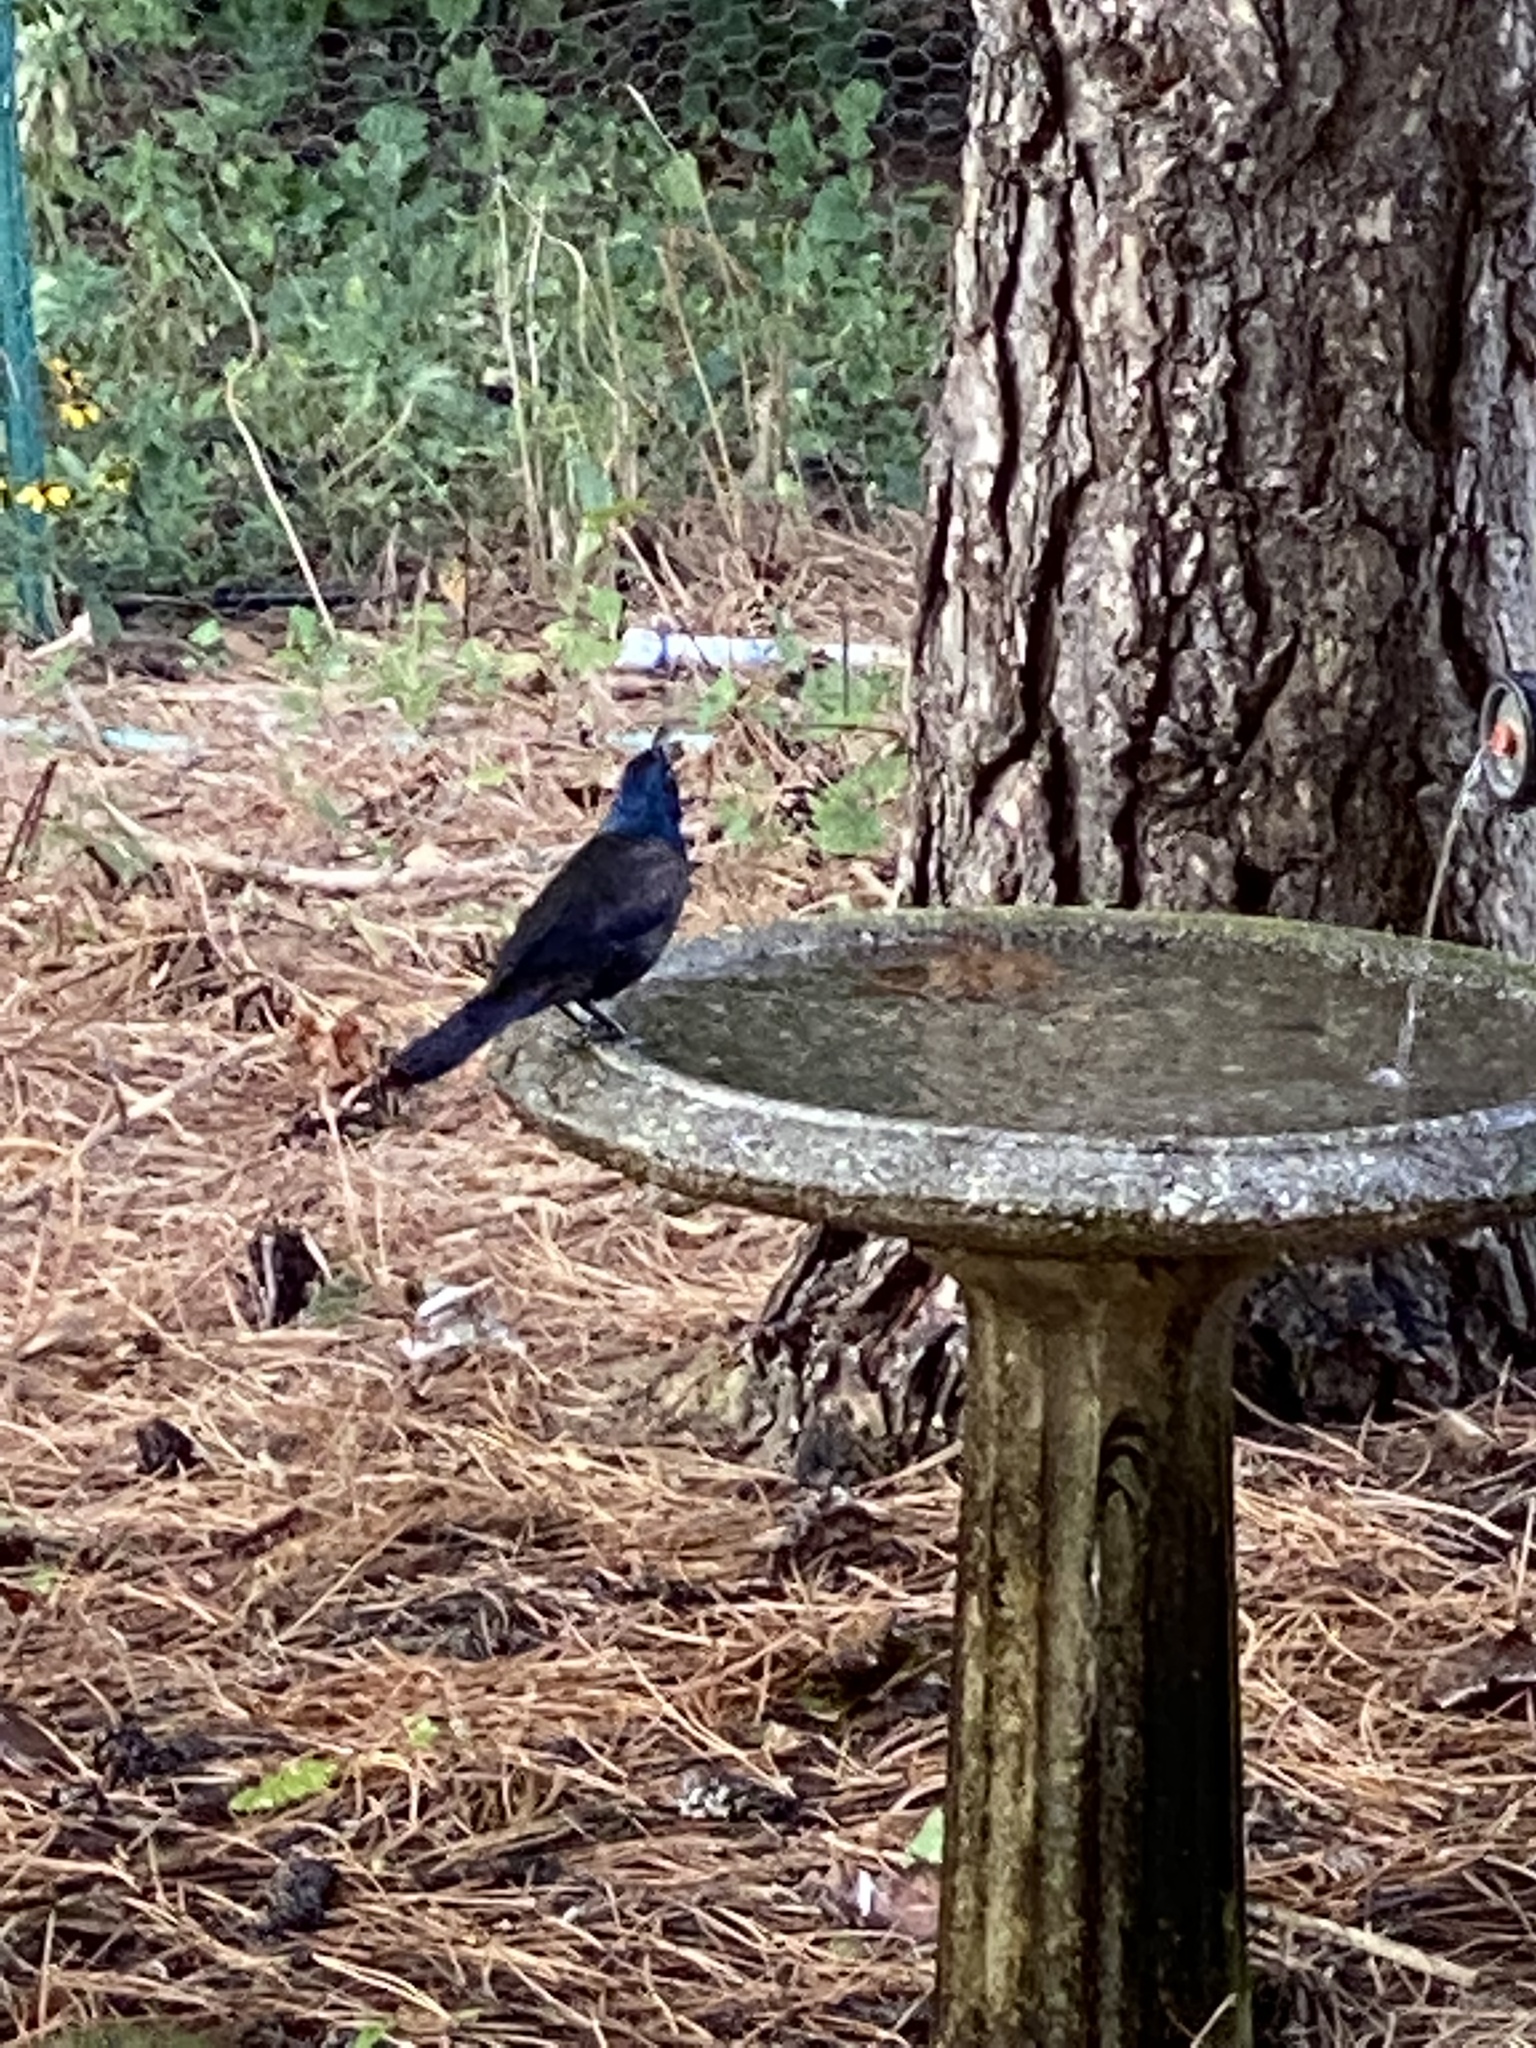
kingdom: Animalia
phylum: Chordata
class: Aves
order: Passeriformes
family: Icteridae
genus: Quiscalus
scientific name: Quiscalus quiscula
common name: Common grackle
